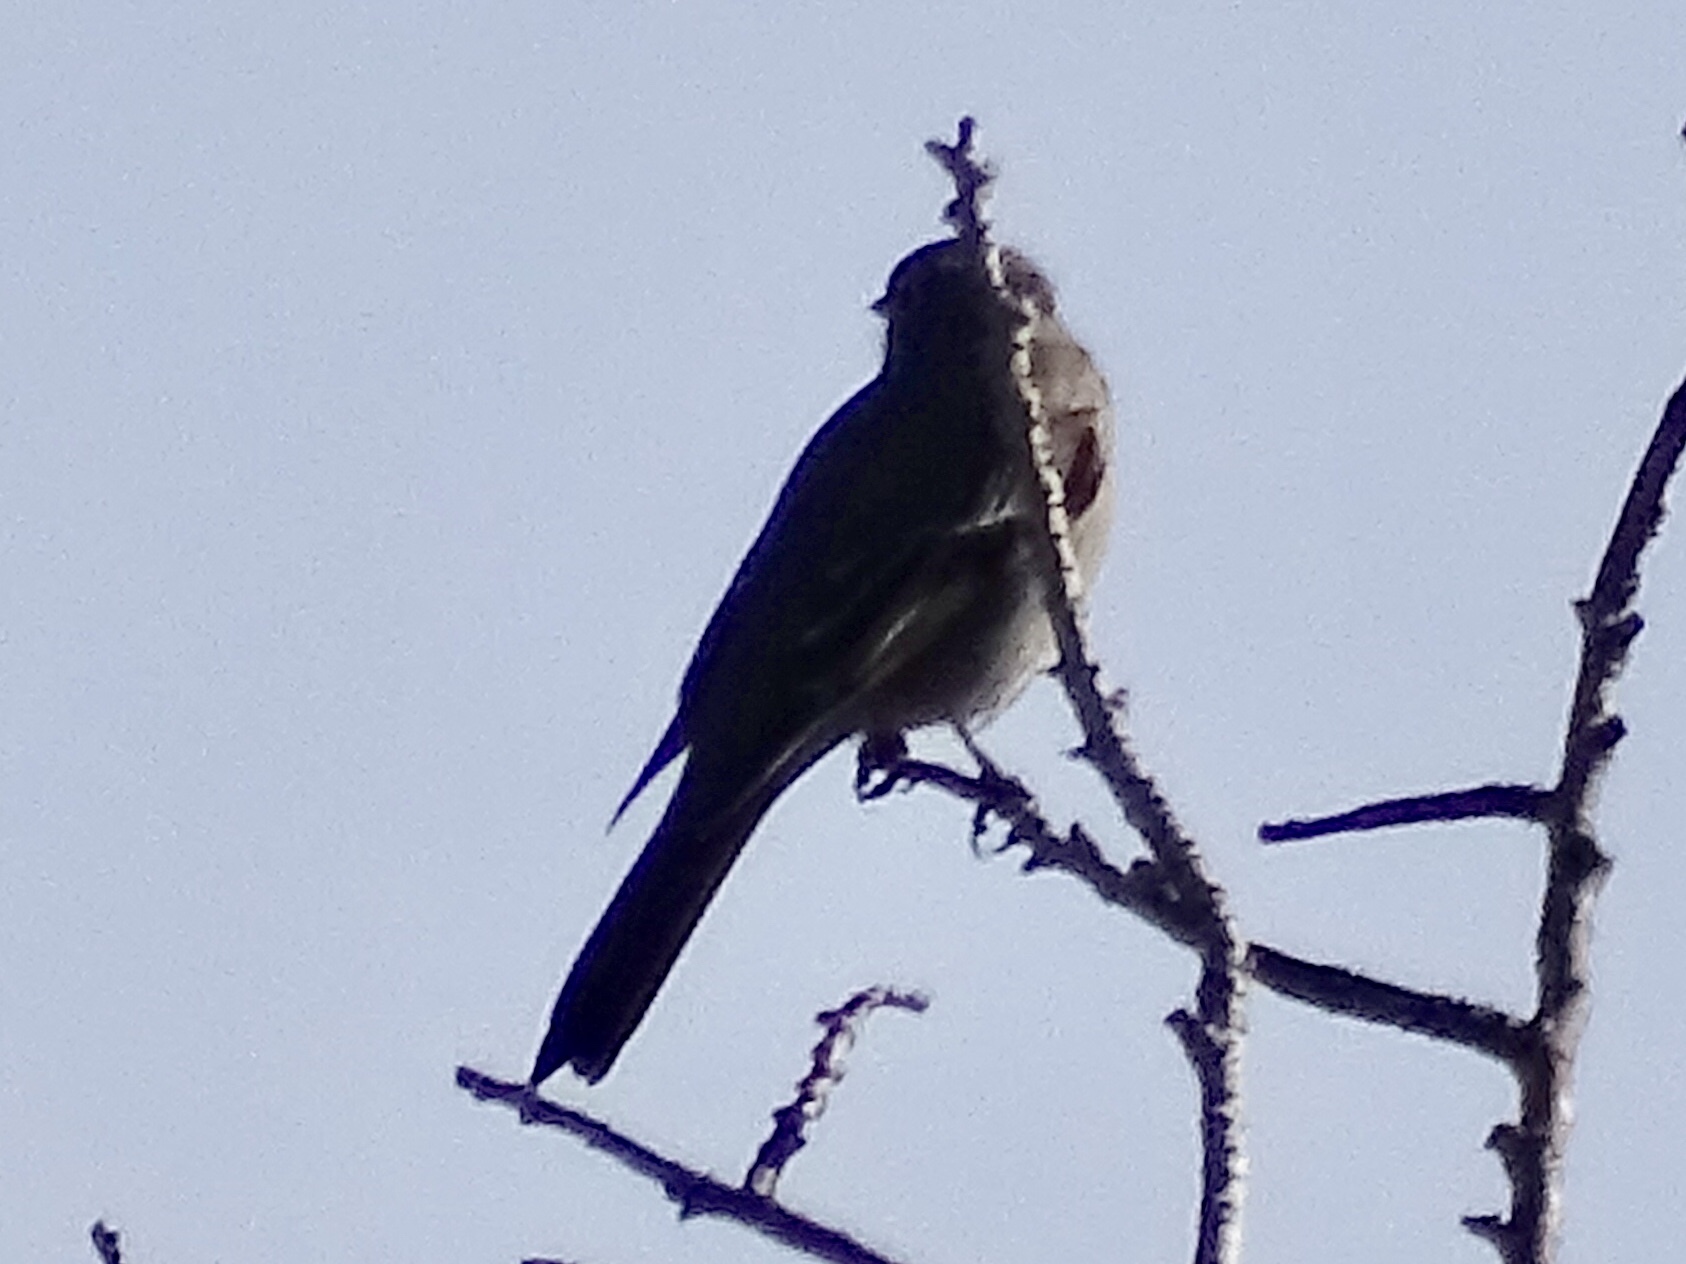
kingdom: Animalia
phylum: Chordata
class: Aves
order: Passeriformes
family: Turdidae
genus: Myadestes
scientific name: Myadestes townsendi
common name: Townsend's solitaire
